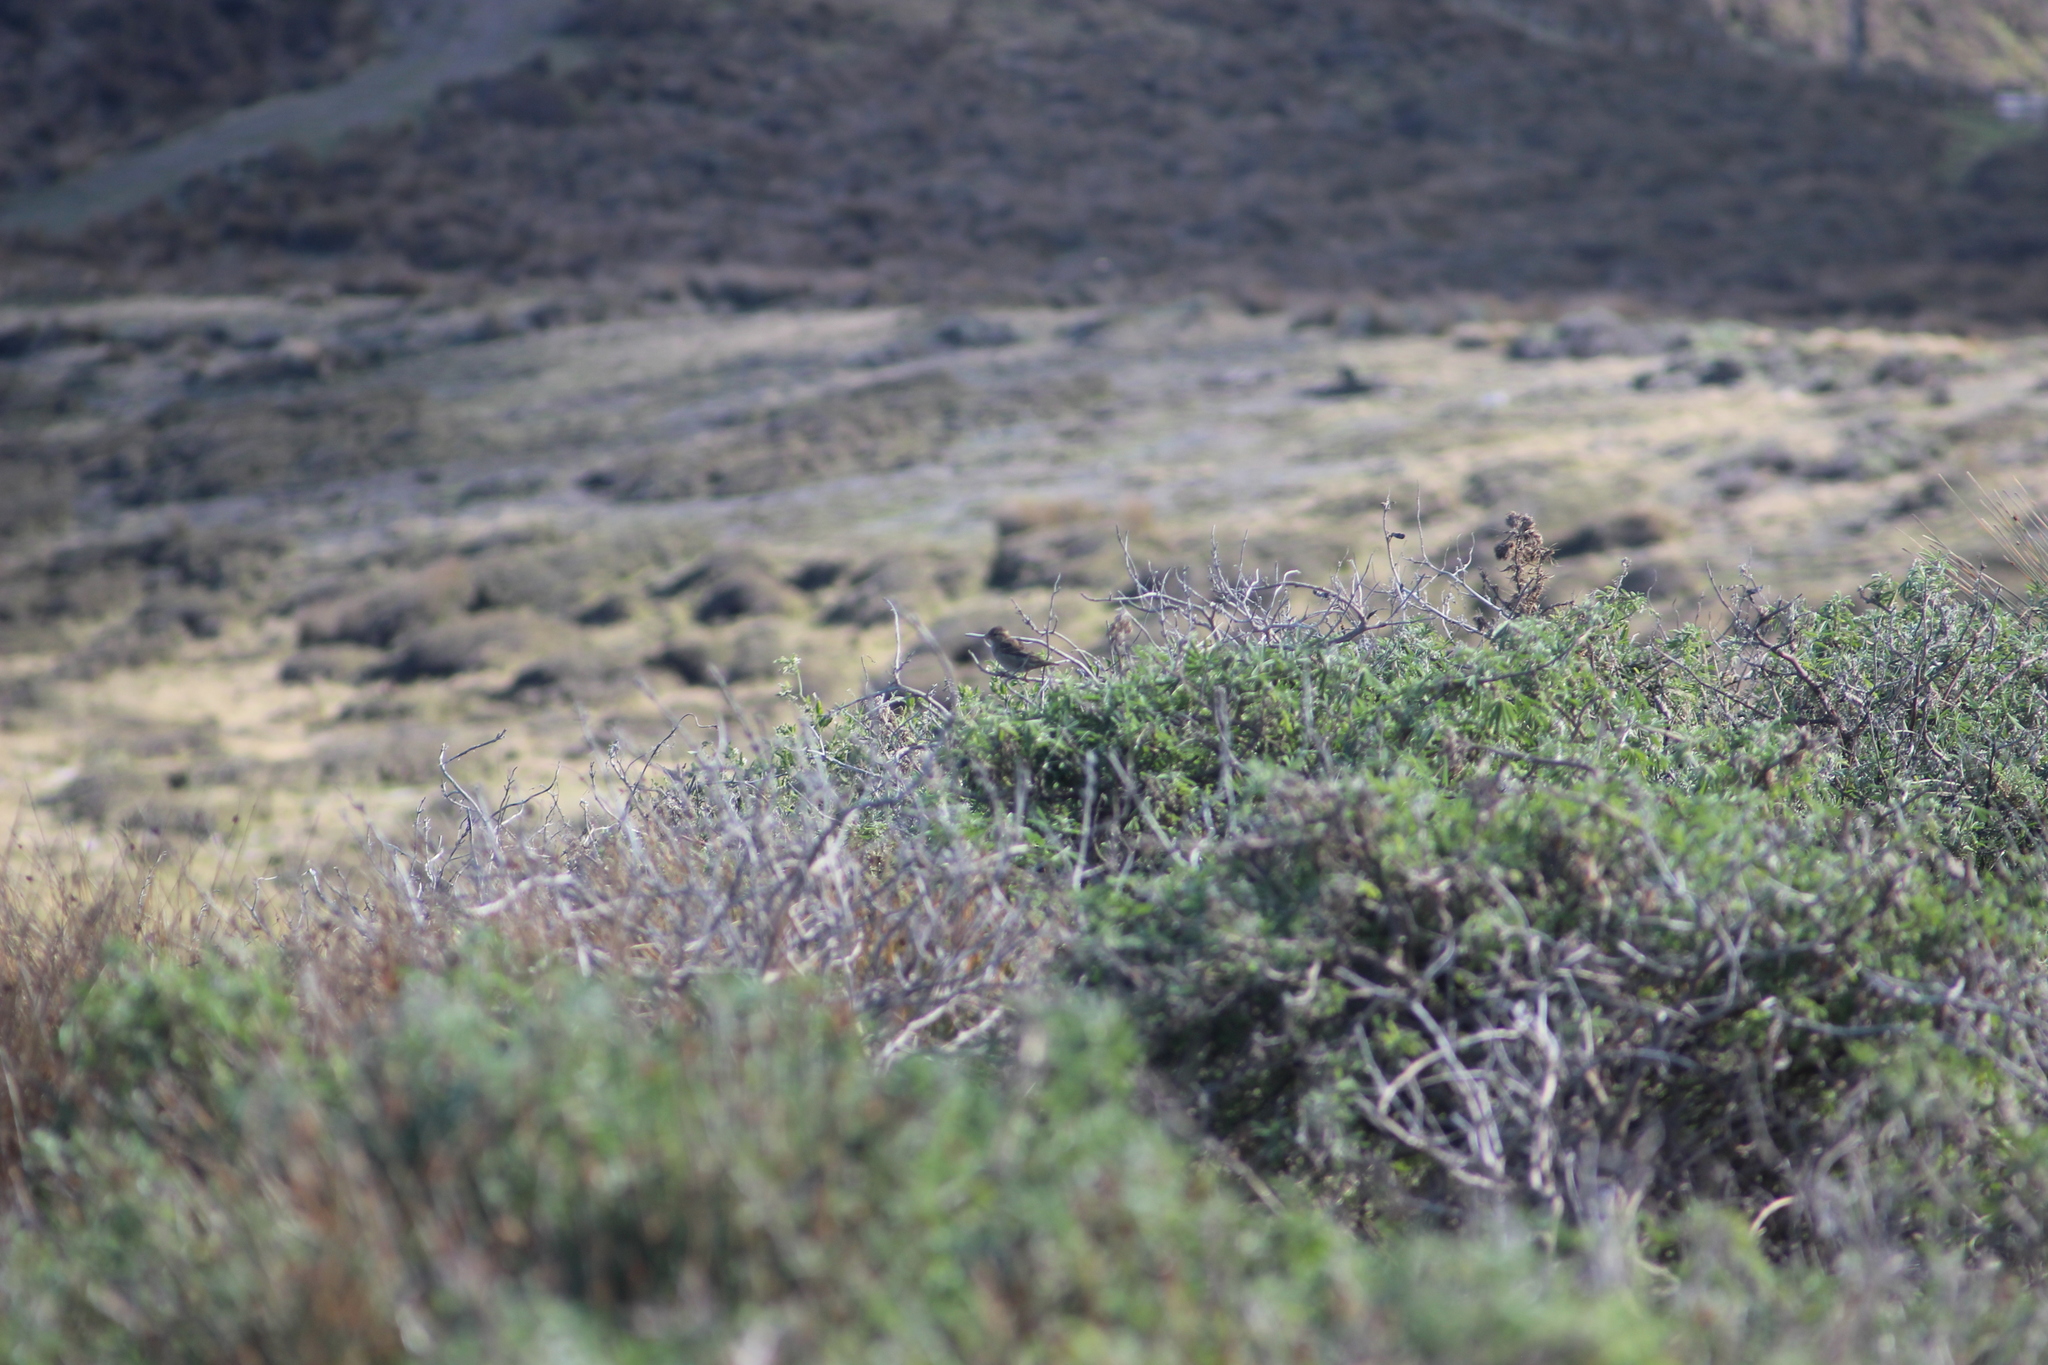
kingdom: Animalia
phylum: Chordata
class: Aves
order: Passeriformes
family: Passeridae
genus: Passer
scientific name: Passer domesticus
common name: House sparrow
